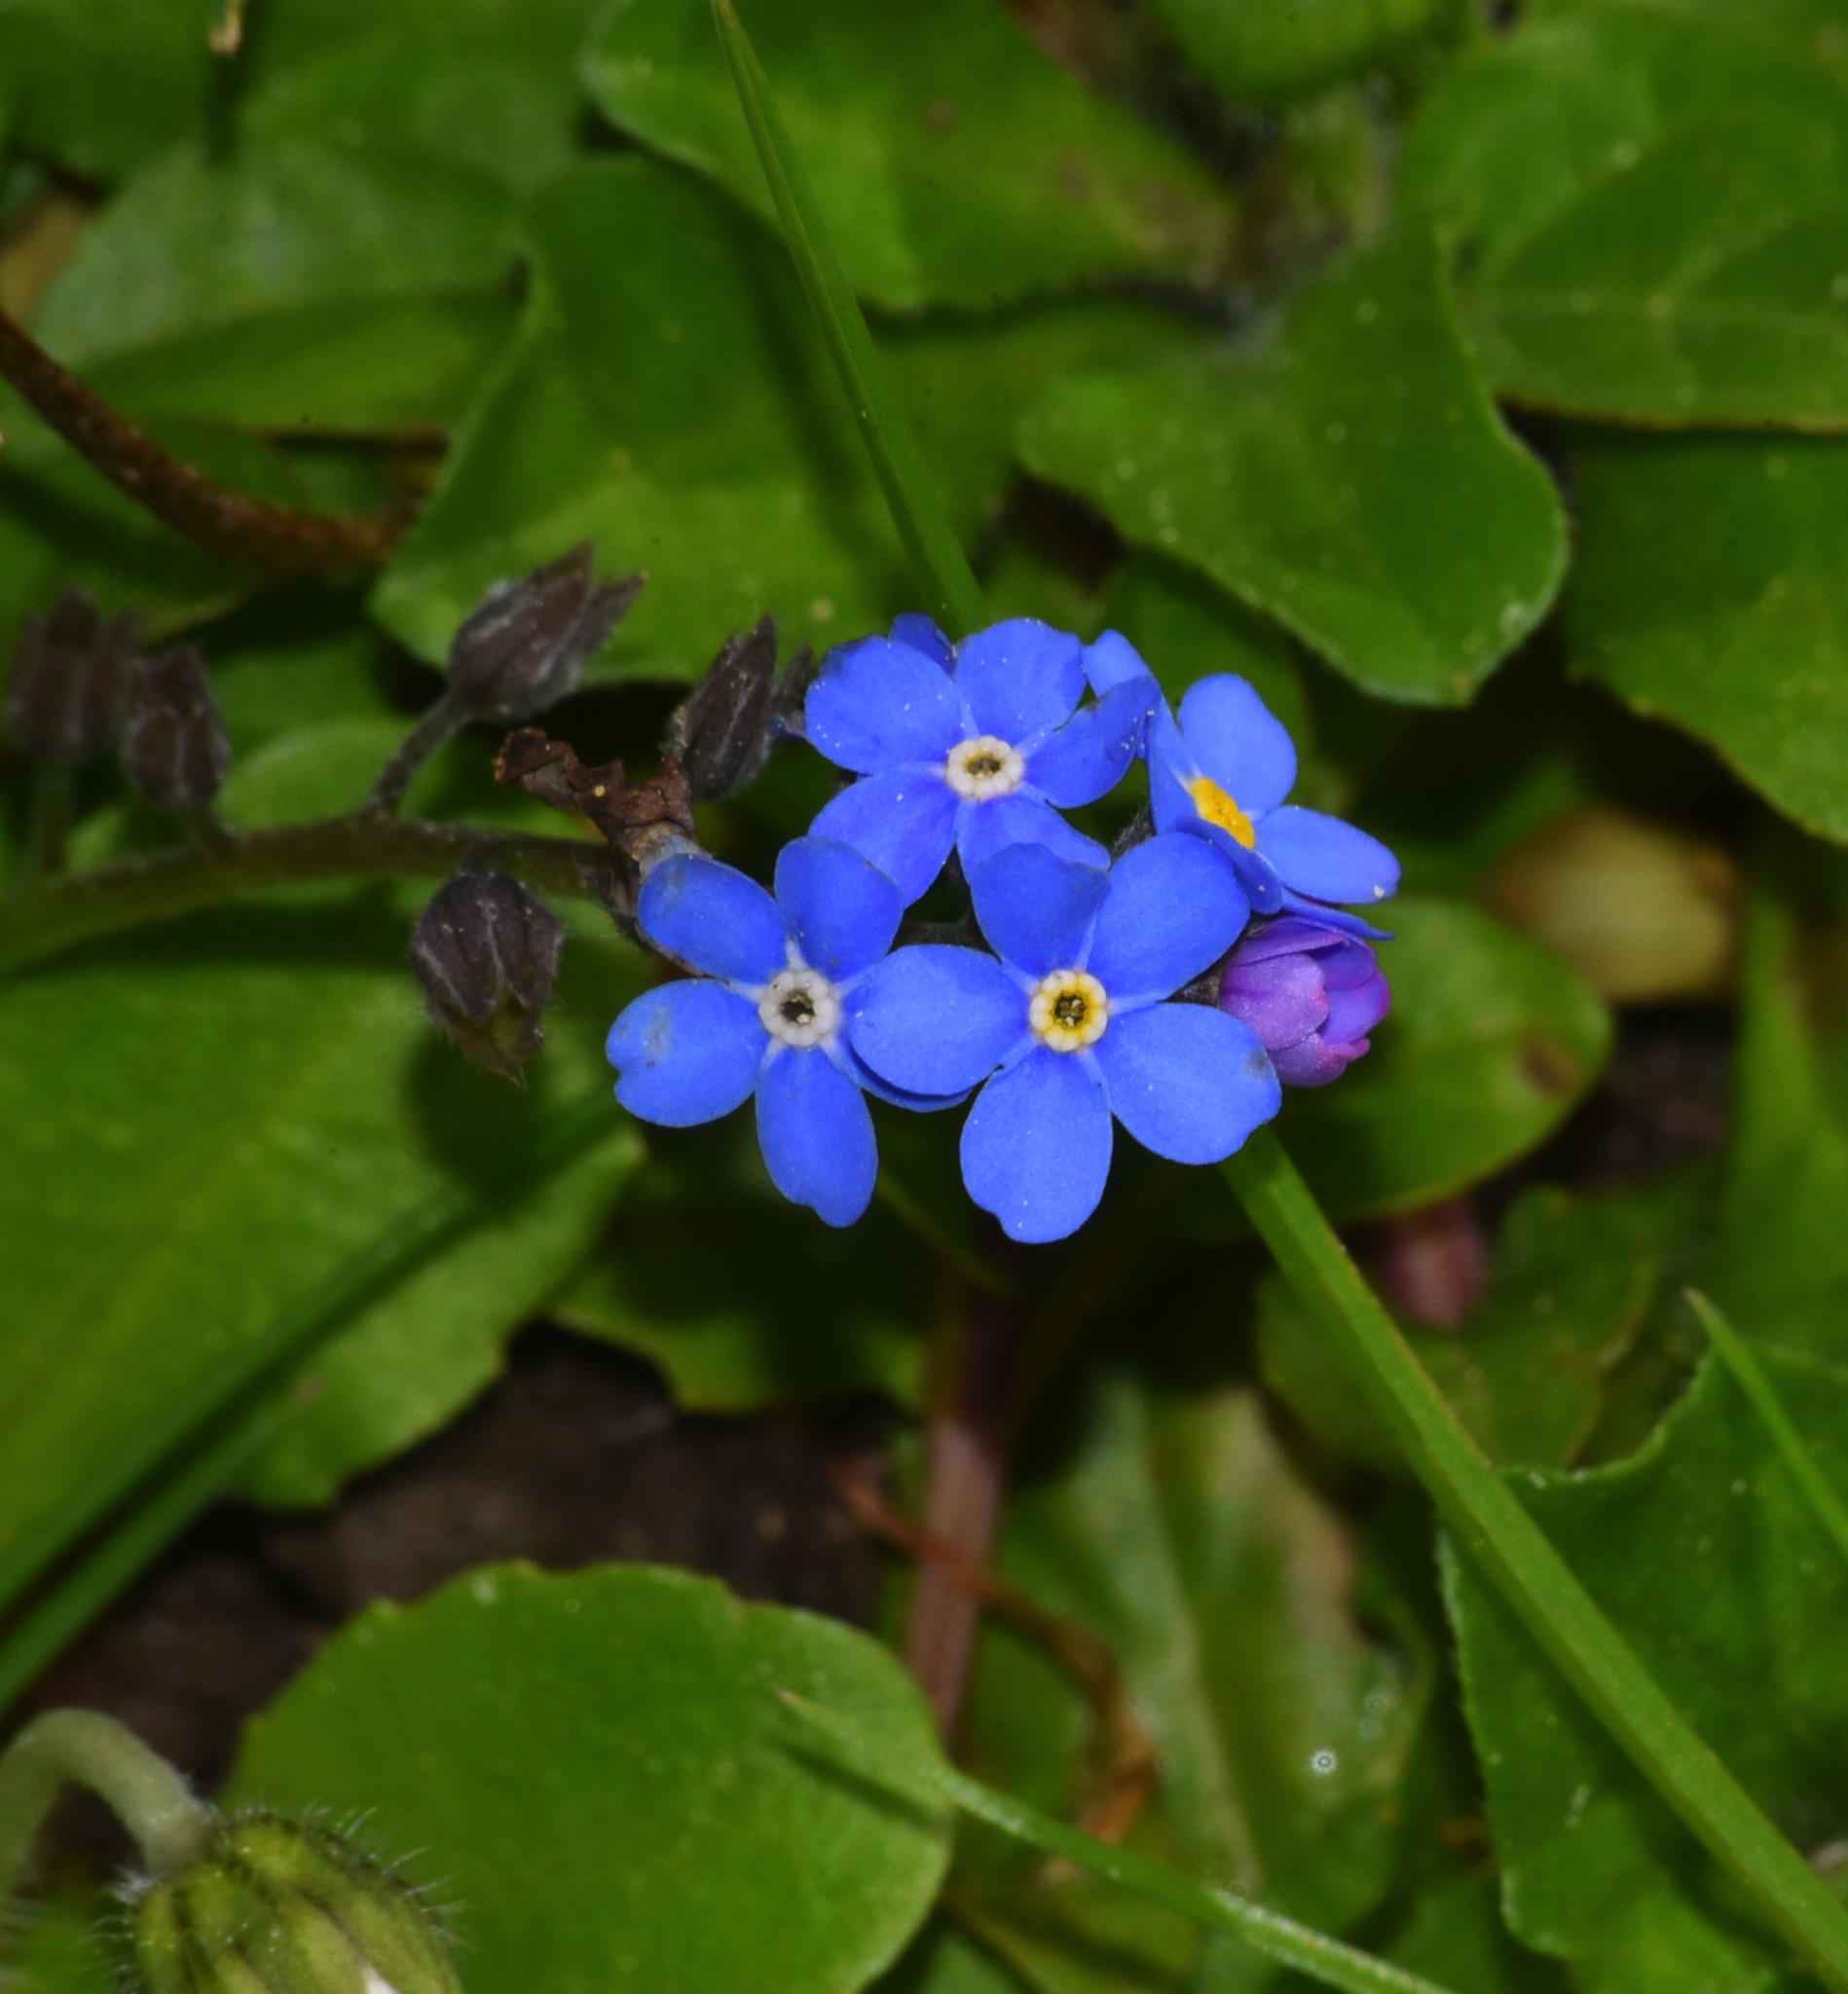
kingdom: Plantae
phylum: Tracheophyta
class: Magnoliopsida
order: Boraginales
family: Boraginaceae
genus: Myosotis
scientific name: Myosotis arvensis
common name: Field forget-me-not
